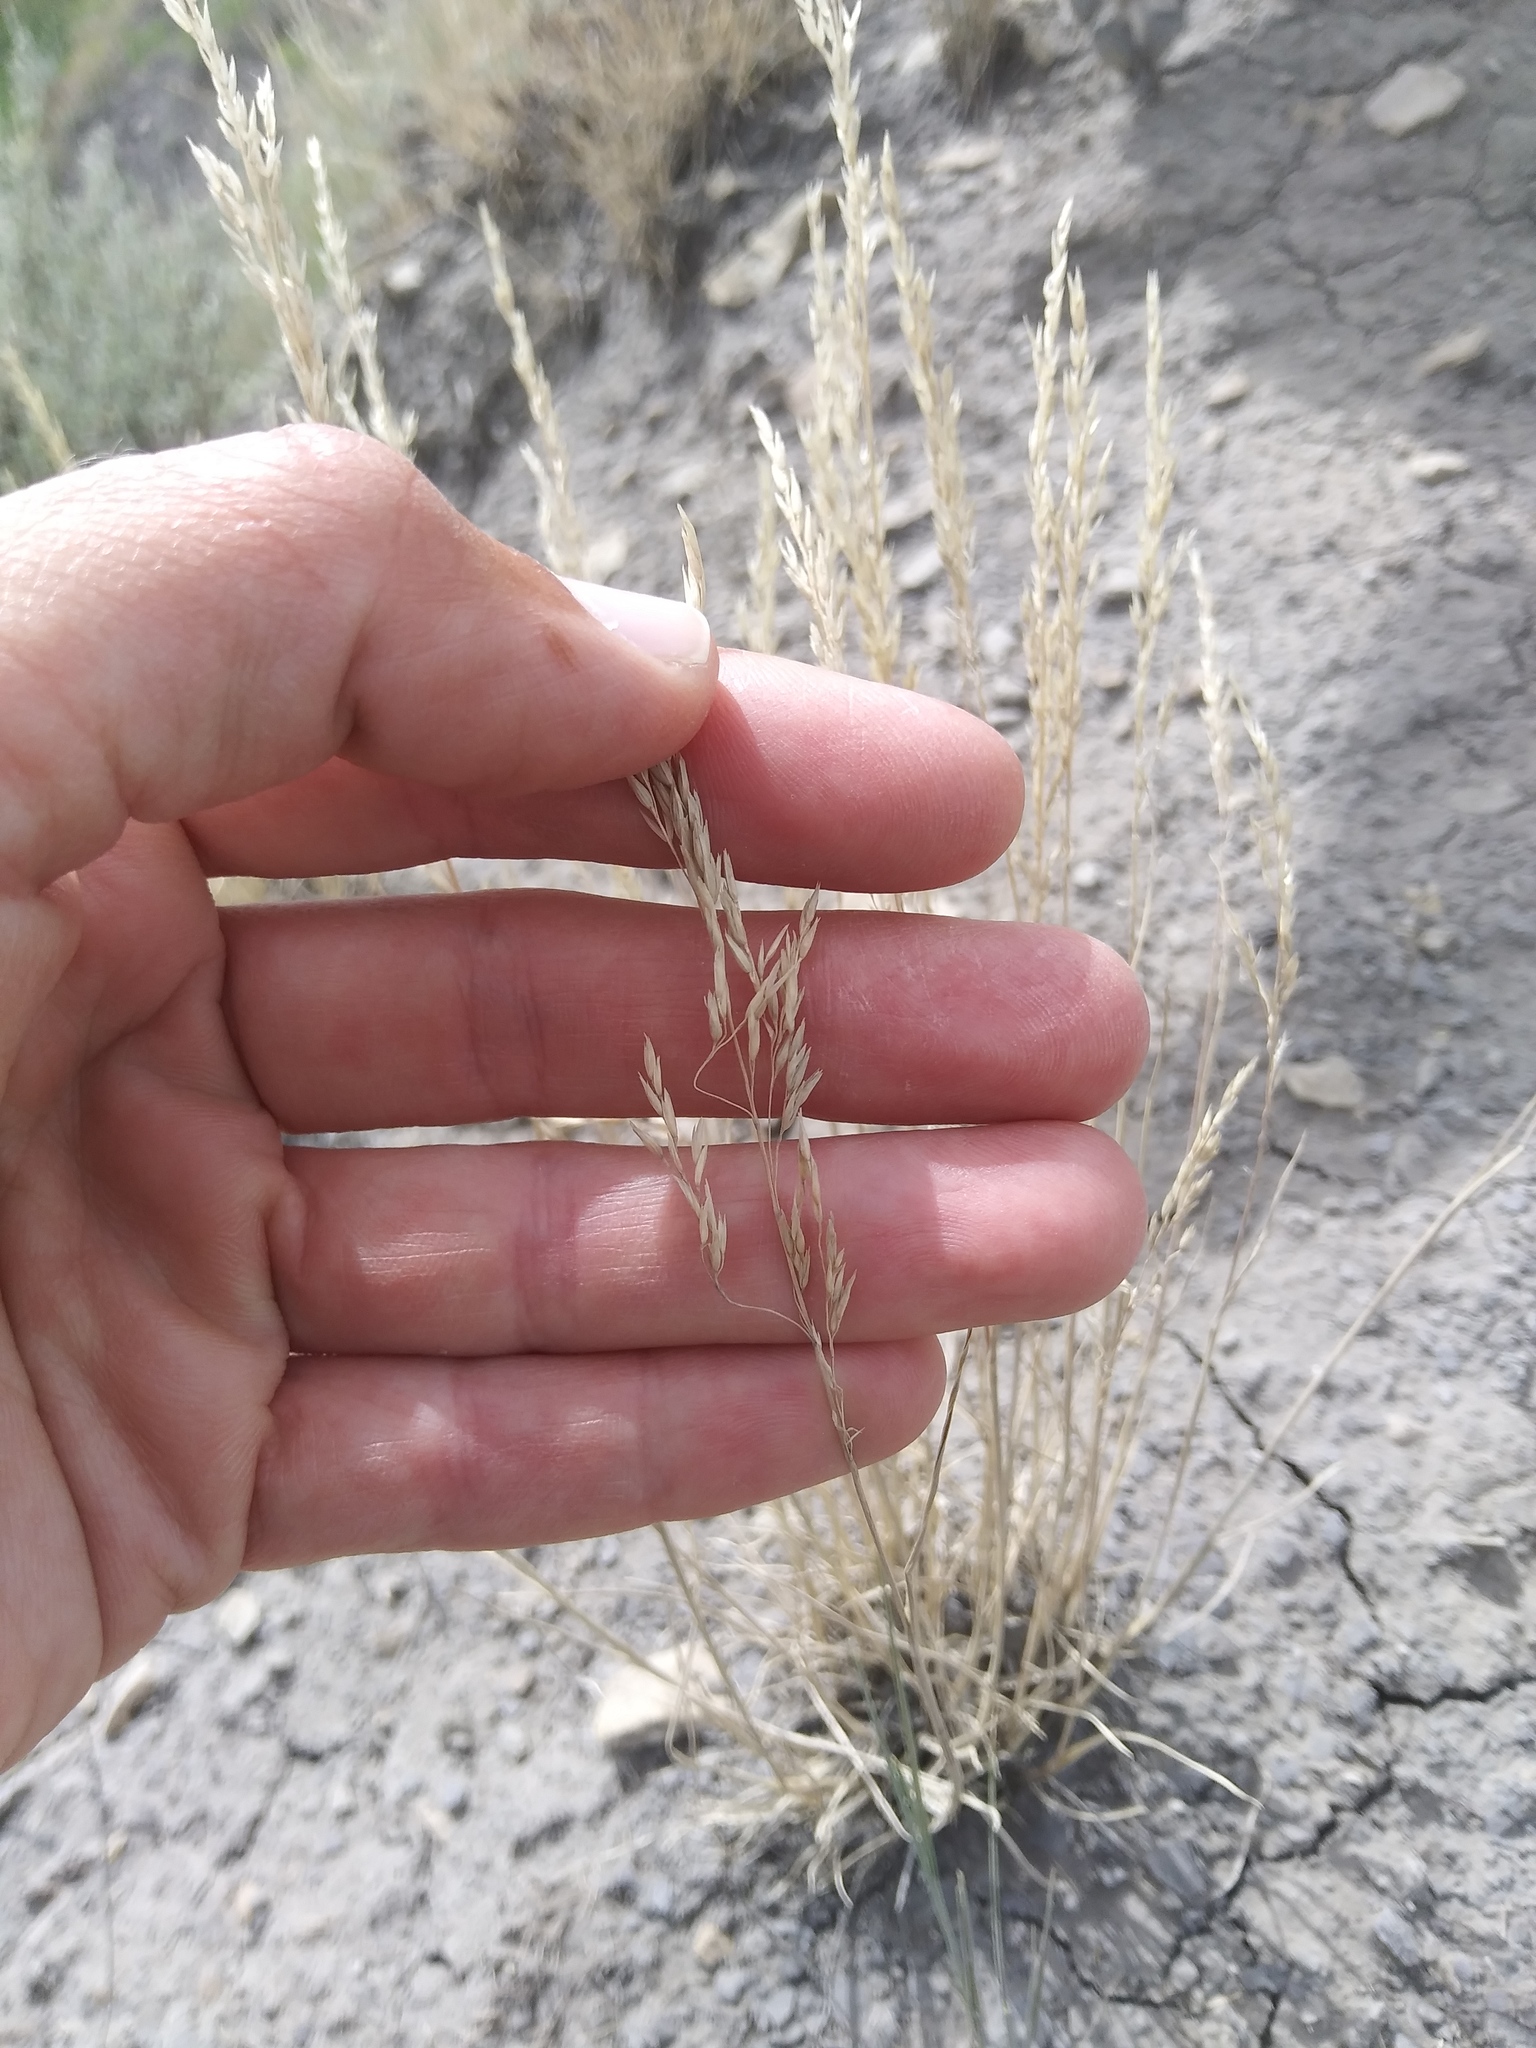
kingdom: Plantae
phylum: Tracheophyta
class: Liliopsida
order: Poales
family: Poaceae
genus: Poa
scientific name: Poa secunda
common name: Sandberg bluegrass
